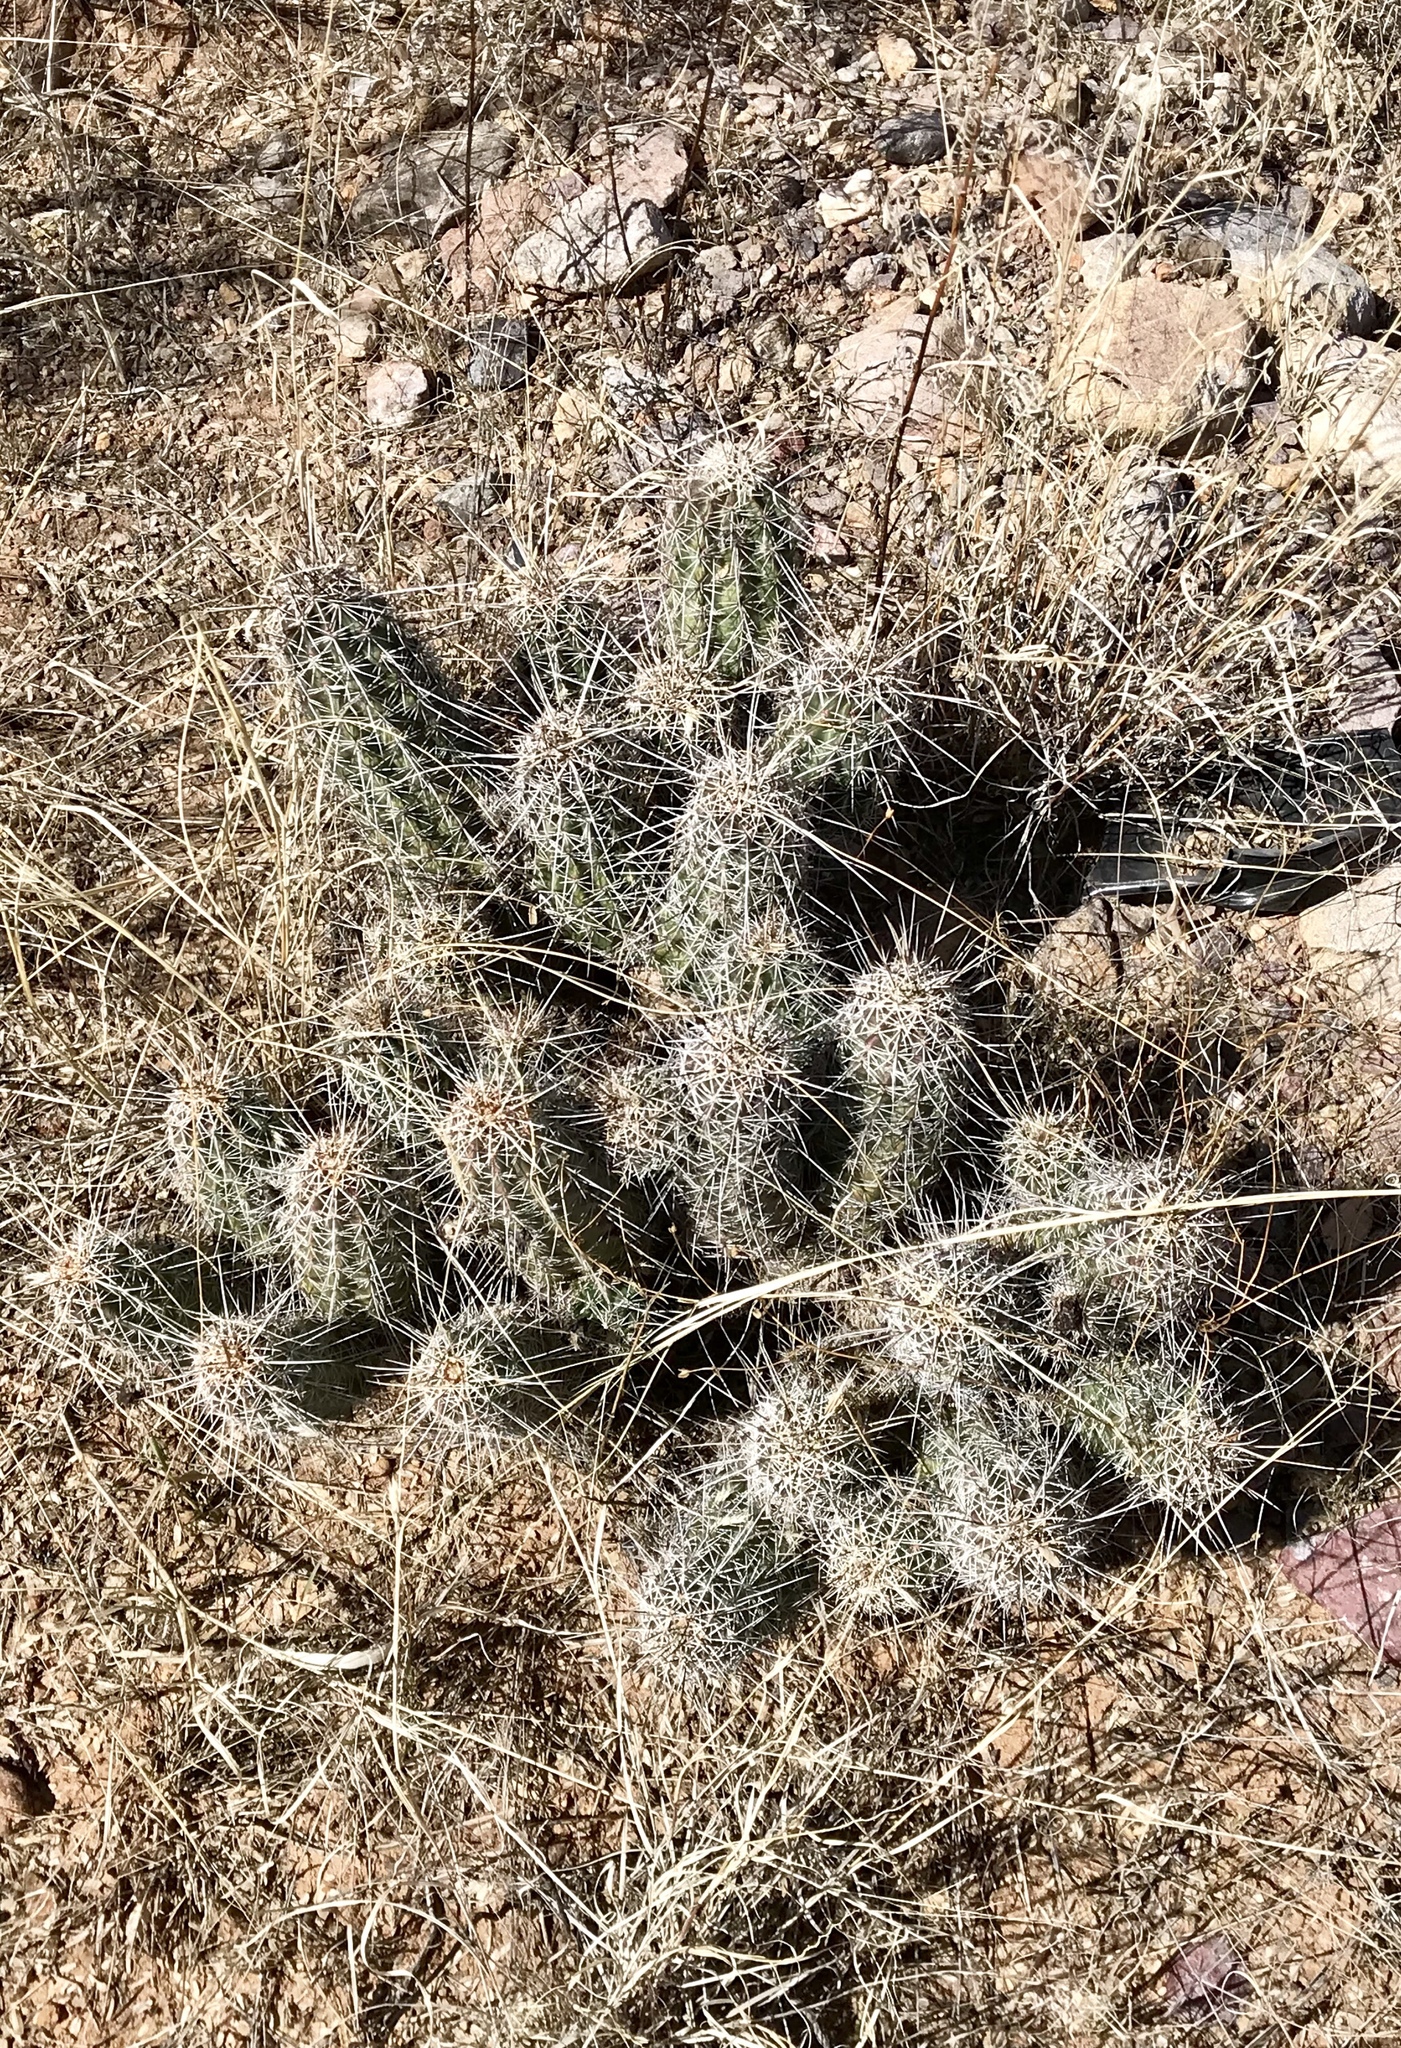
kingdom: Plantae
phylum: Tracheophyta
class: Magnoliopsida
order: Caryophyllales
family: Cactaceae
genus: Echinocereus
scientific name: Echinocereus fendleri
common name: Fendler's hedgehog cactus
